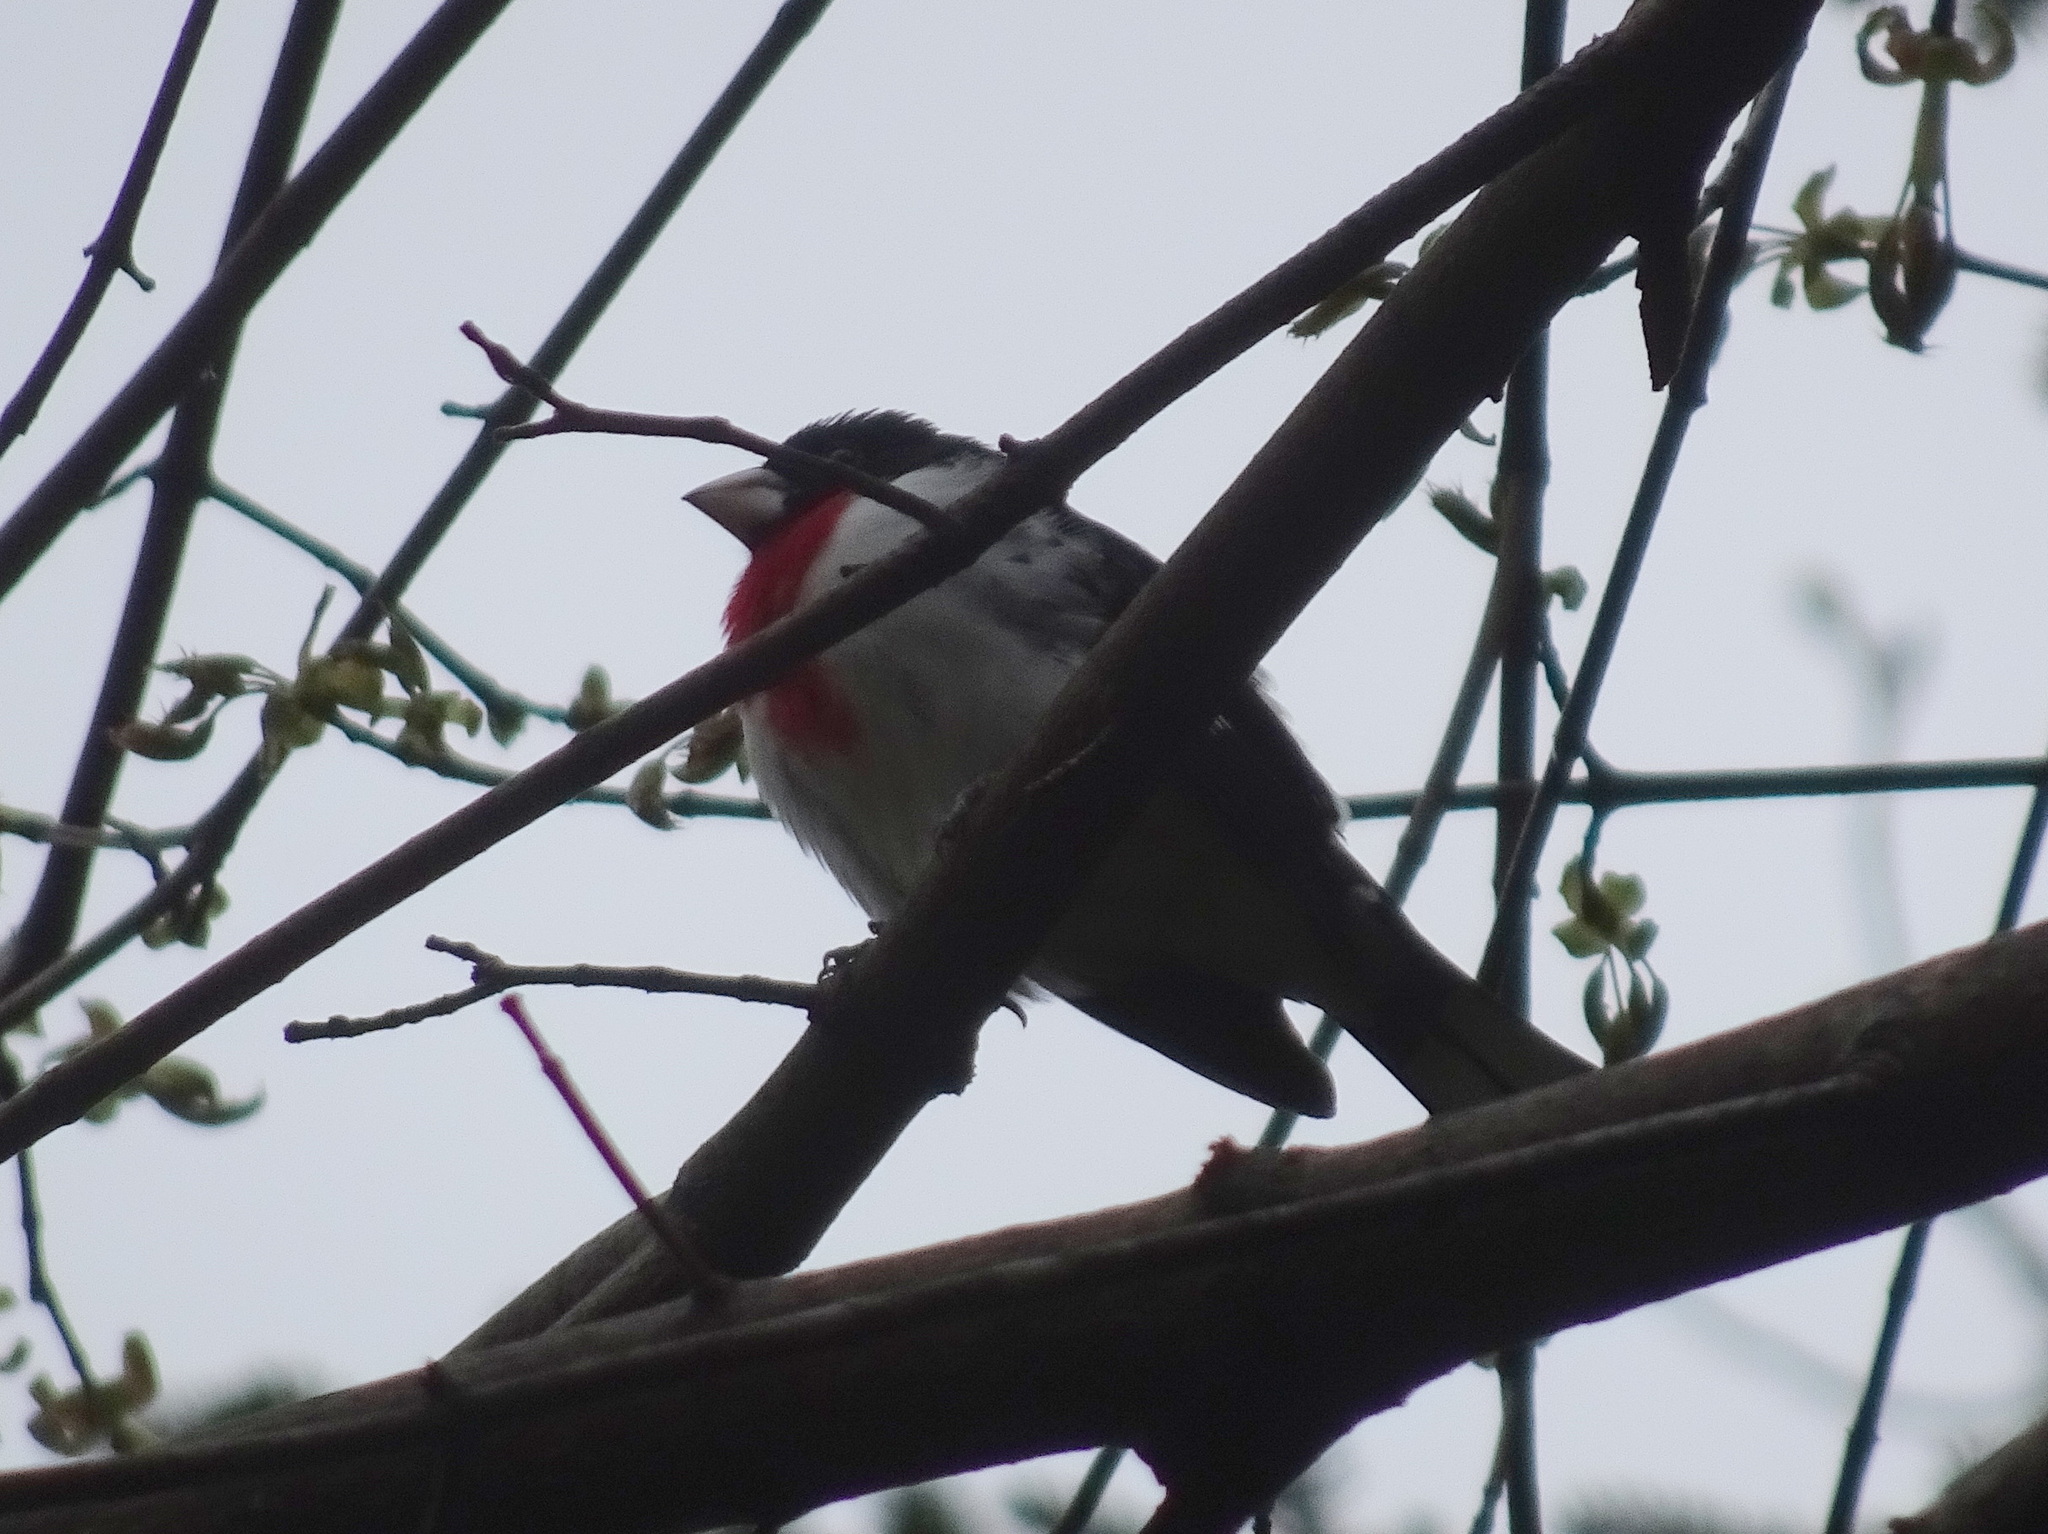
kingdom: Animalia
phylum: Chordata
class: Aves
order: Passeriformes
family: Cardinalidae
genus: Pheucticus
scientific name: Pheucticus ludovicianus
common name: Rose-breasted grosbeak
